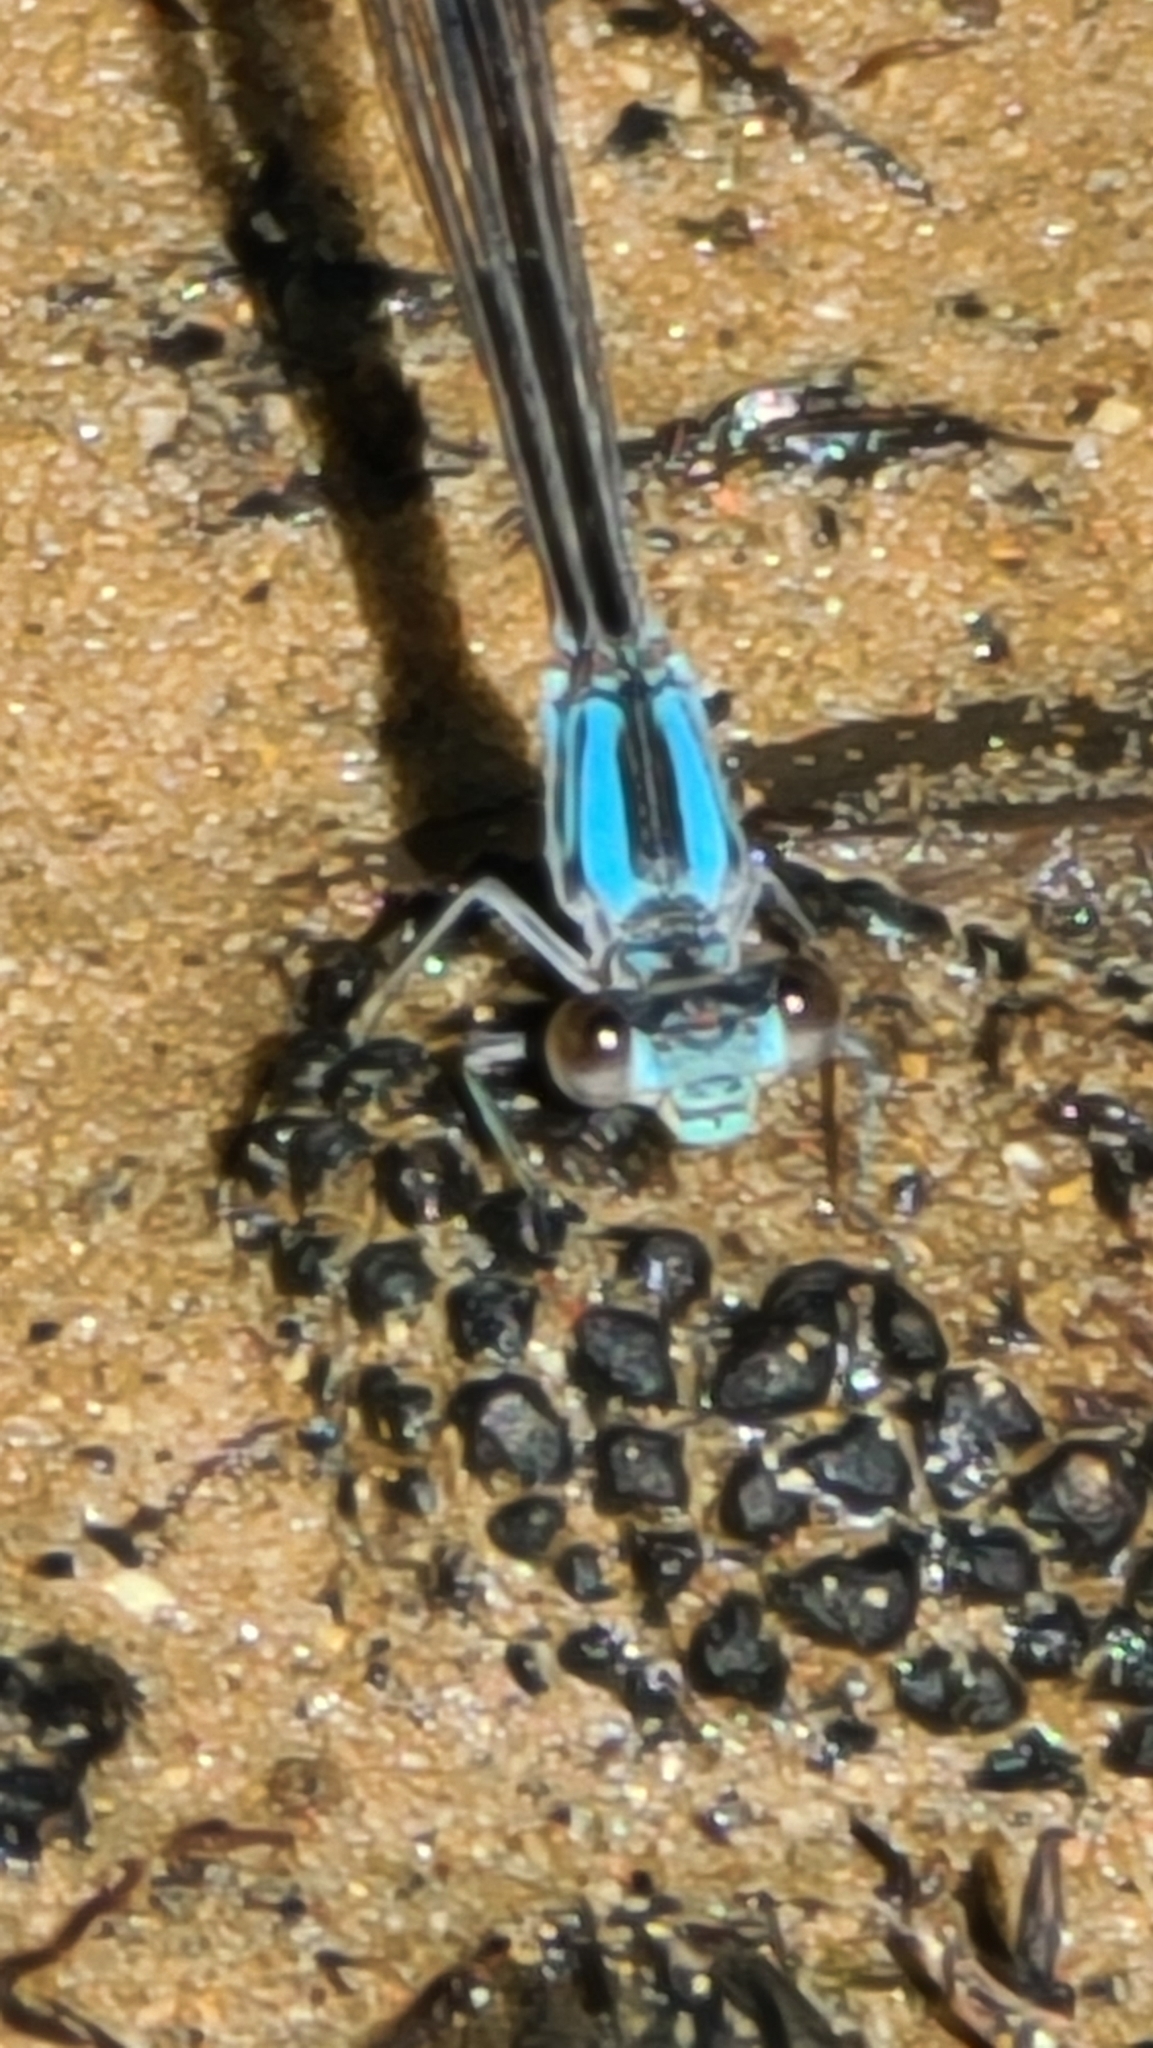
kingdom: Animalia
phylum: Arthropoda
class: Insecta
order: Odonata
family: Coenagrionidae
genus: Argia
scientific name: Argia apicalis
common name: Blue-fronted dancer
